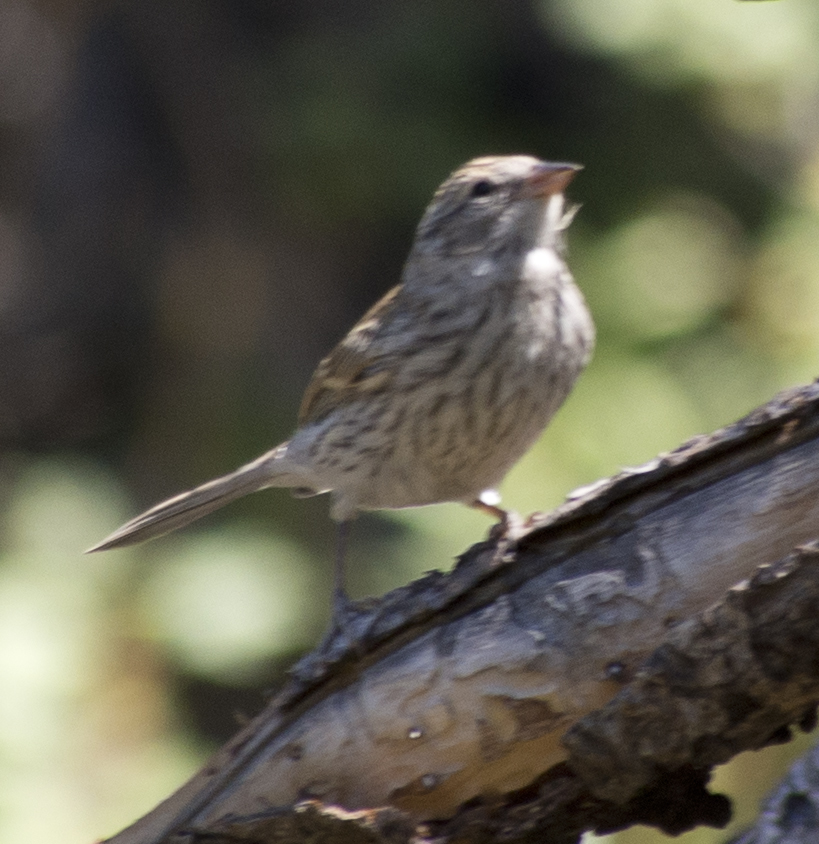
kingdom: Animalia
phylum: Chordata
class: Aves
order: Passeriformes
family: Passerellidae
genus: Spizella
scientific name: Spizella passerina
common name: Chipping sparrow
